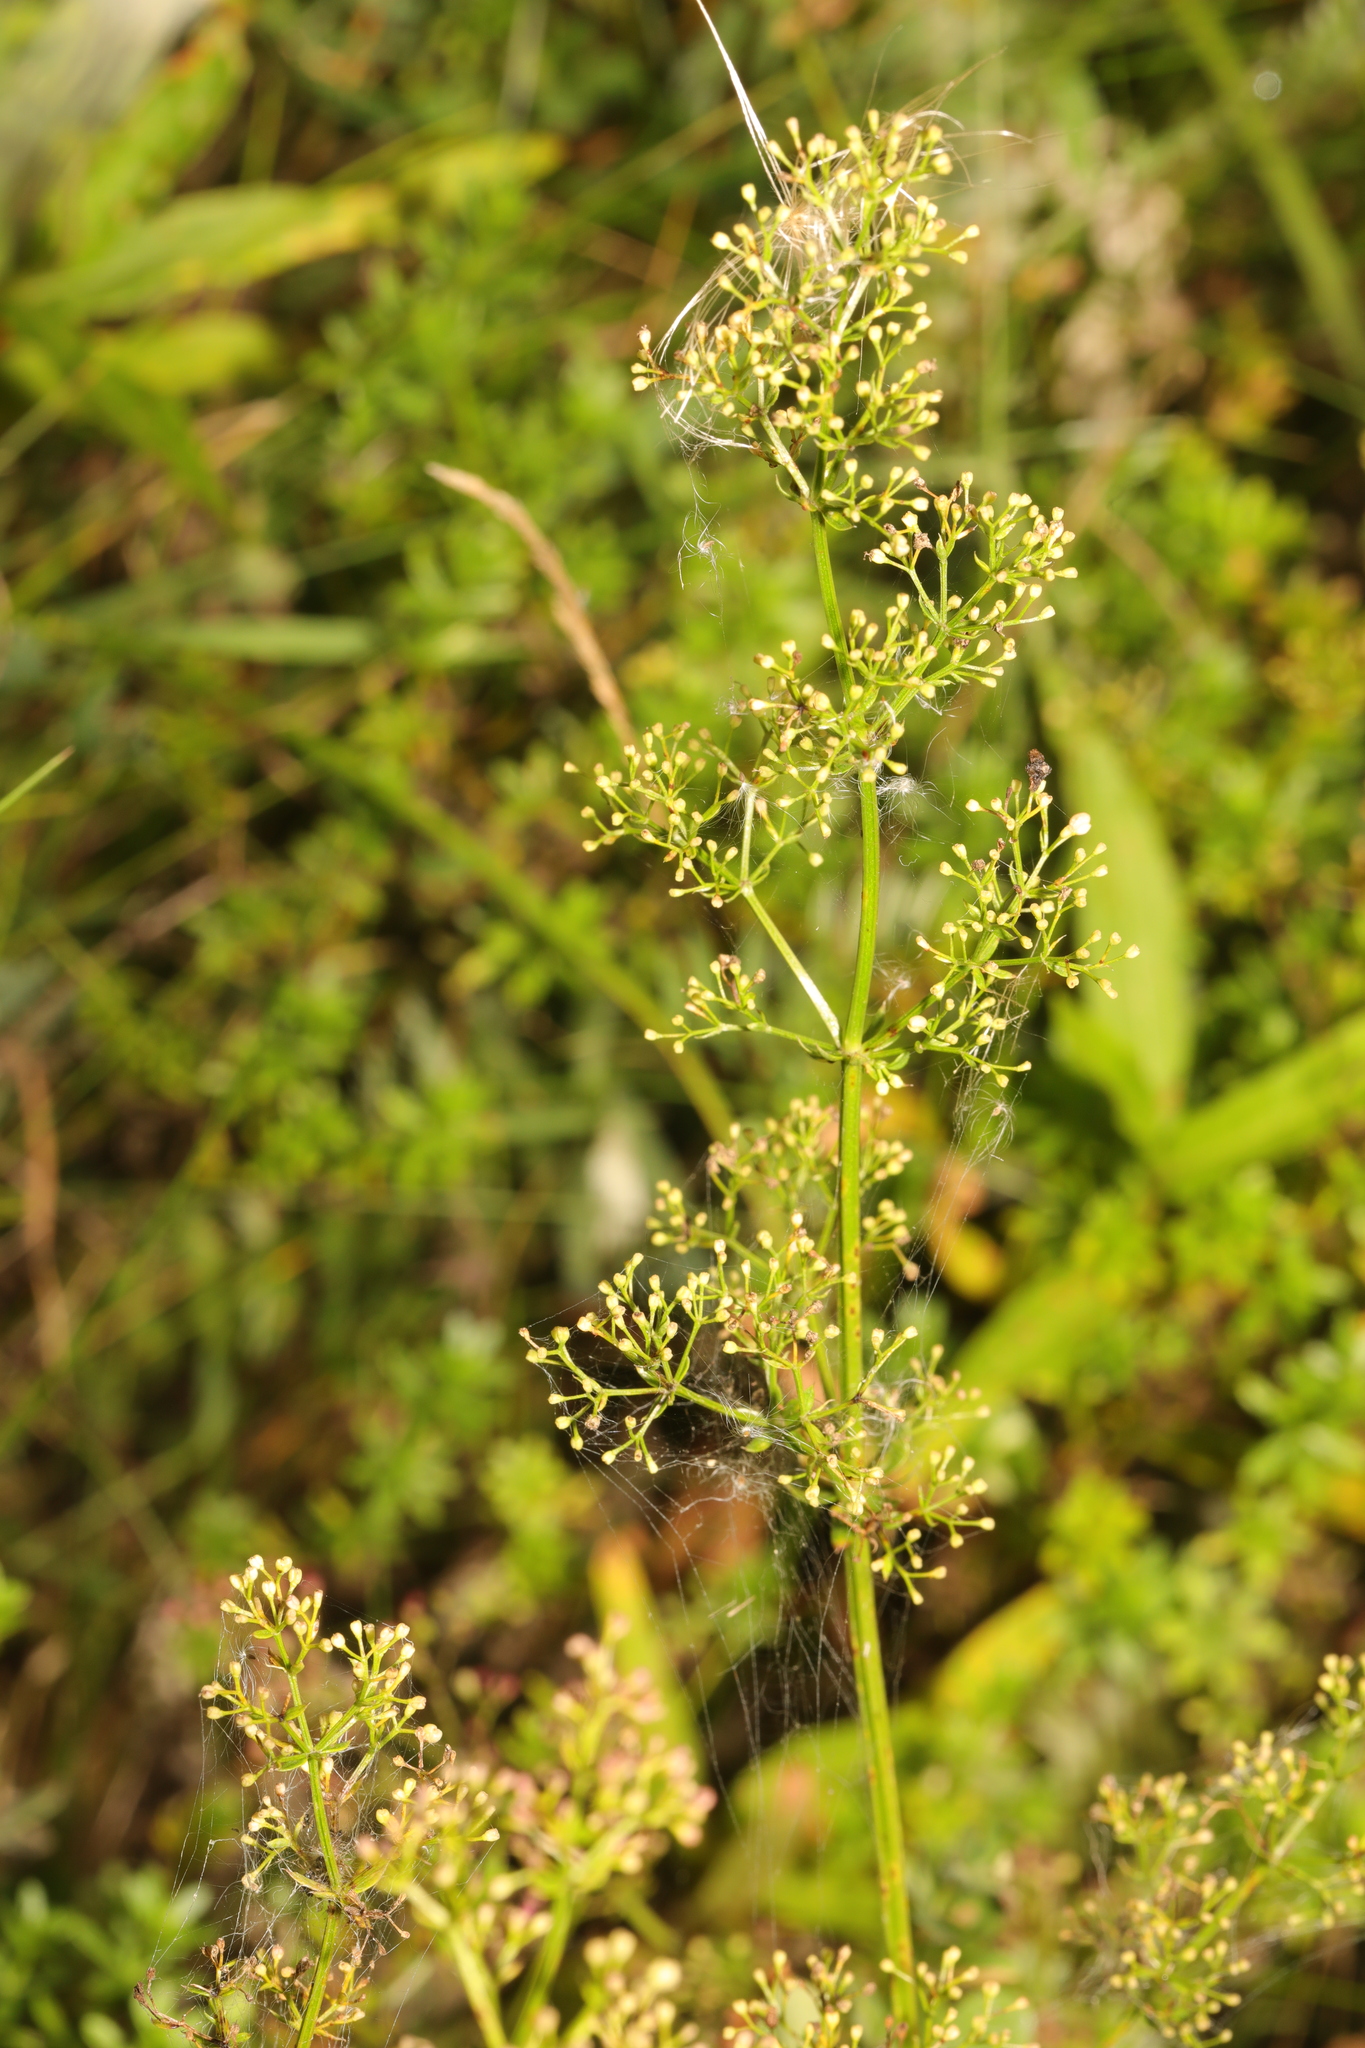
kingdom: Plantae
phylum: Tracheophyta
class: Magnoliopsida
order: Gentianales
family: Rubiaceae
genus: Galium
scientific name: Galium verum
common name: Lady's bedstraw
